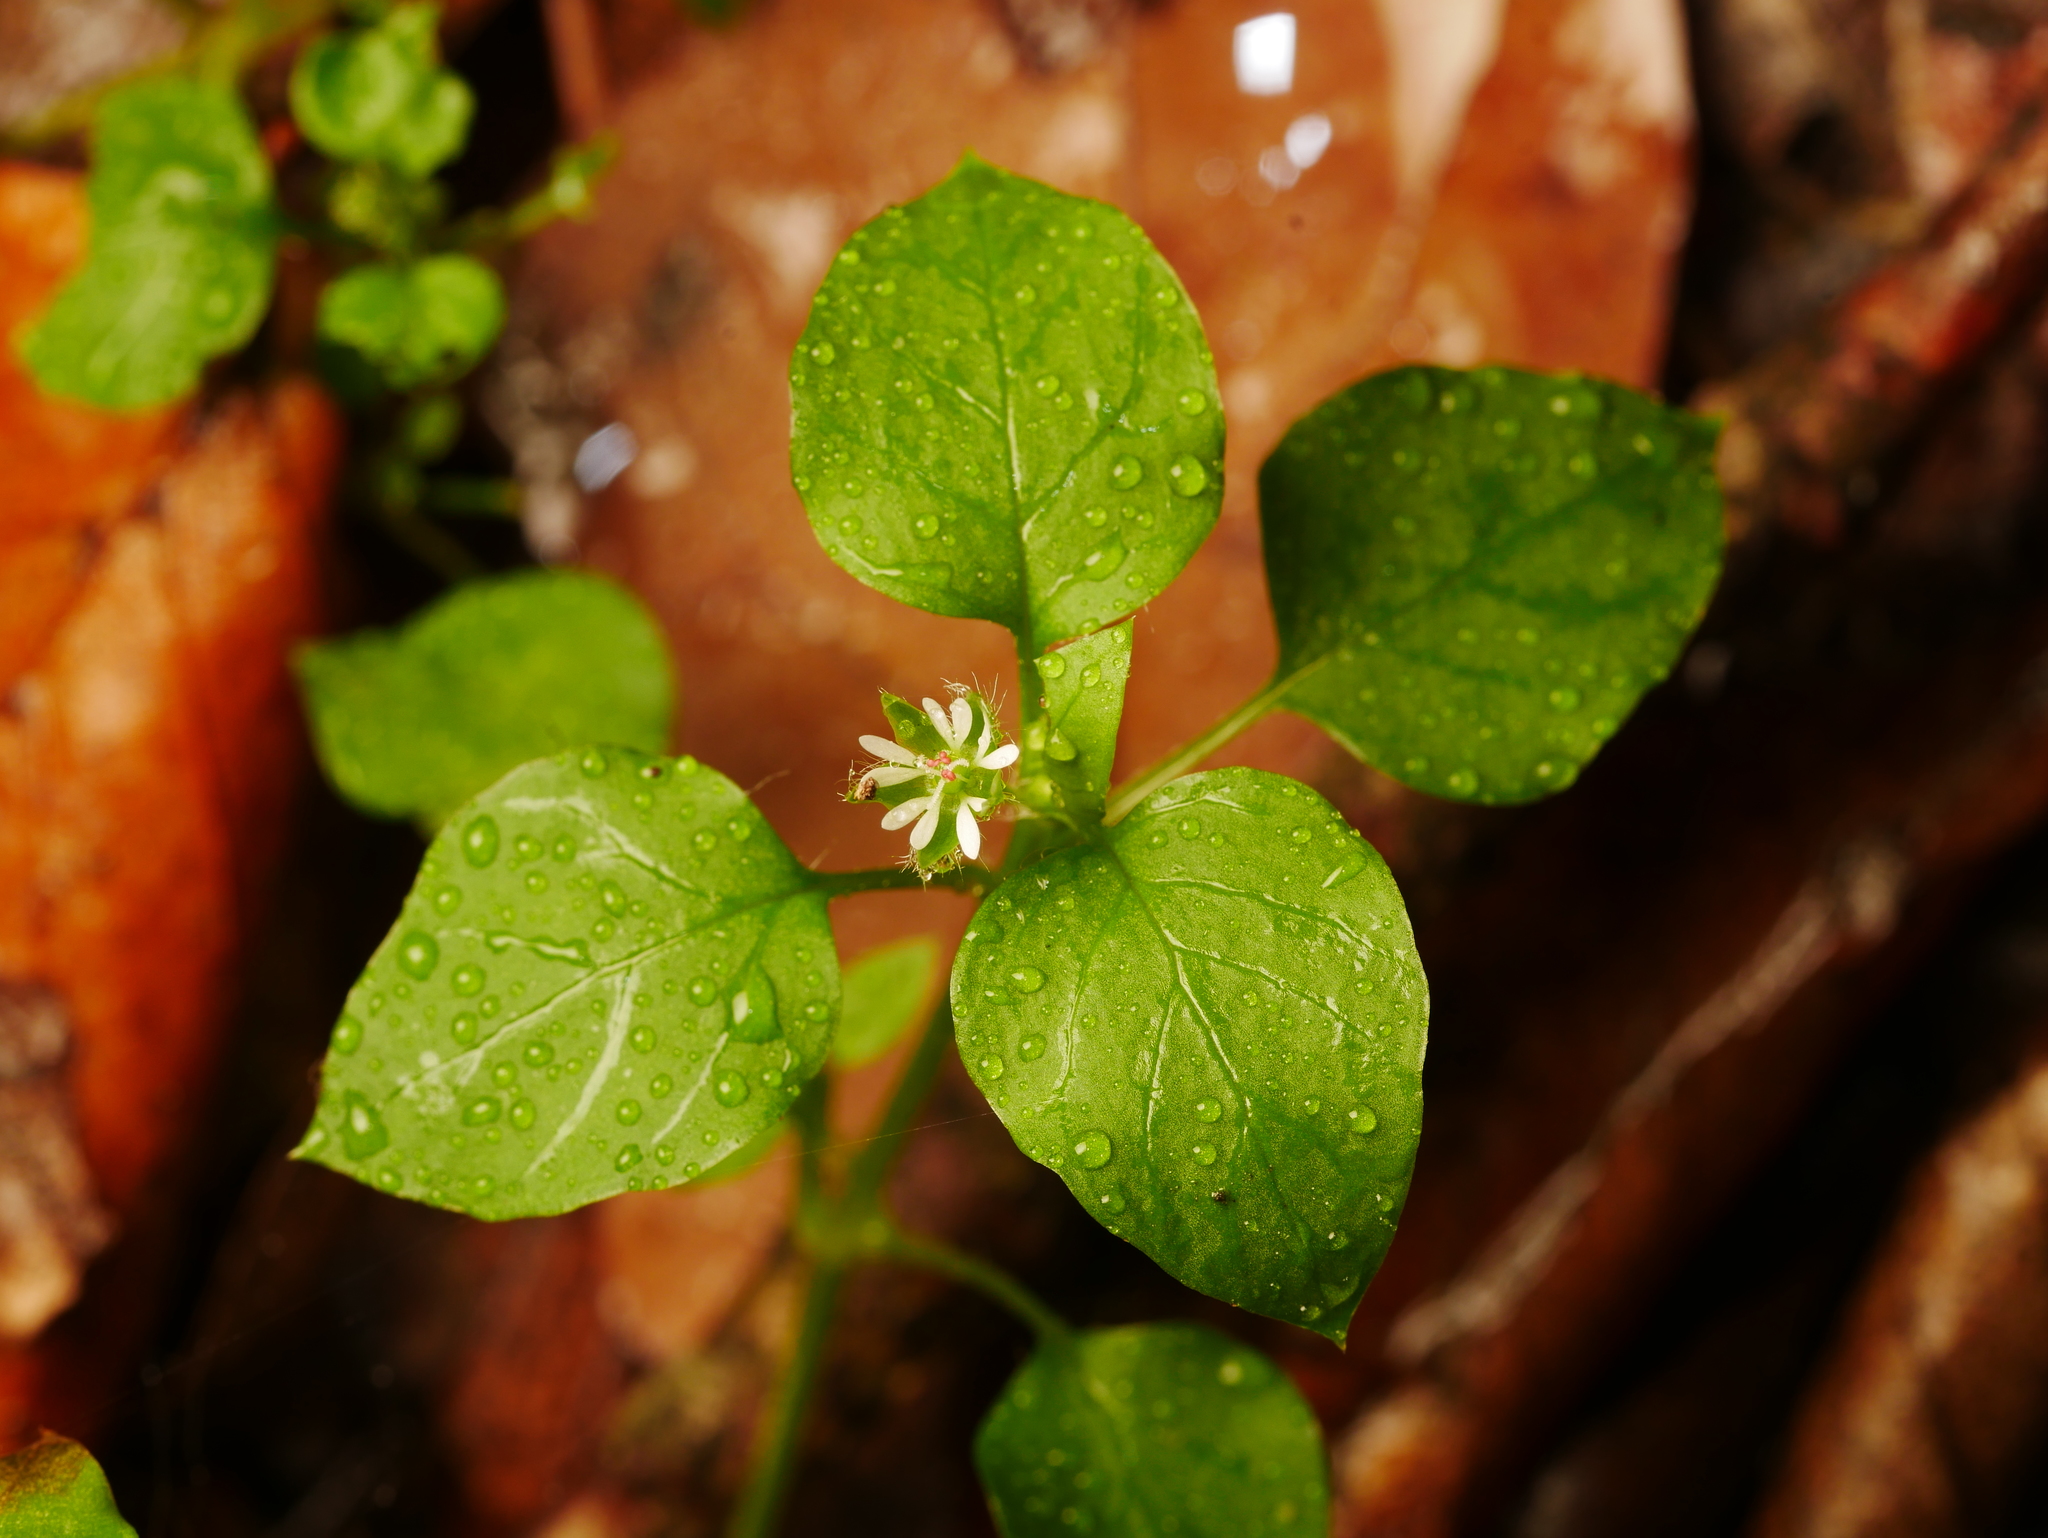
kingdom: Plantae
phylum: Tracheophyta
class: Magnoliopsida
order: Caryophyllales
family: Caryophyllaceae
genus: Stellaria
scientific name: Stellaria media
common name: Common chickweed
